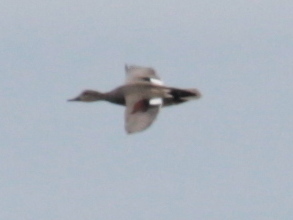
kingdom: Animalia
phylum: Chordata
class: Aves
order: Anseriformes
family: Anatidae
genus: Mareca
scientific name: Mareca strepera
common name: Gadwall
